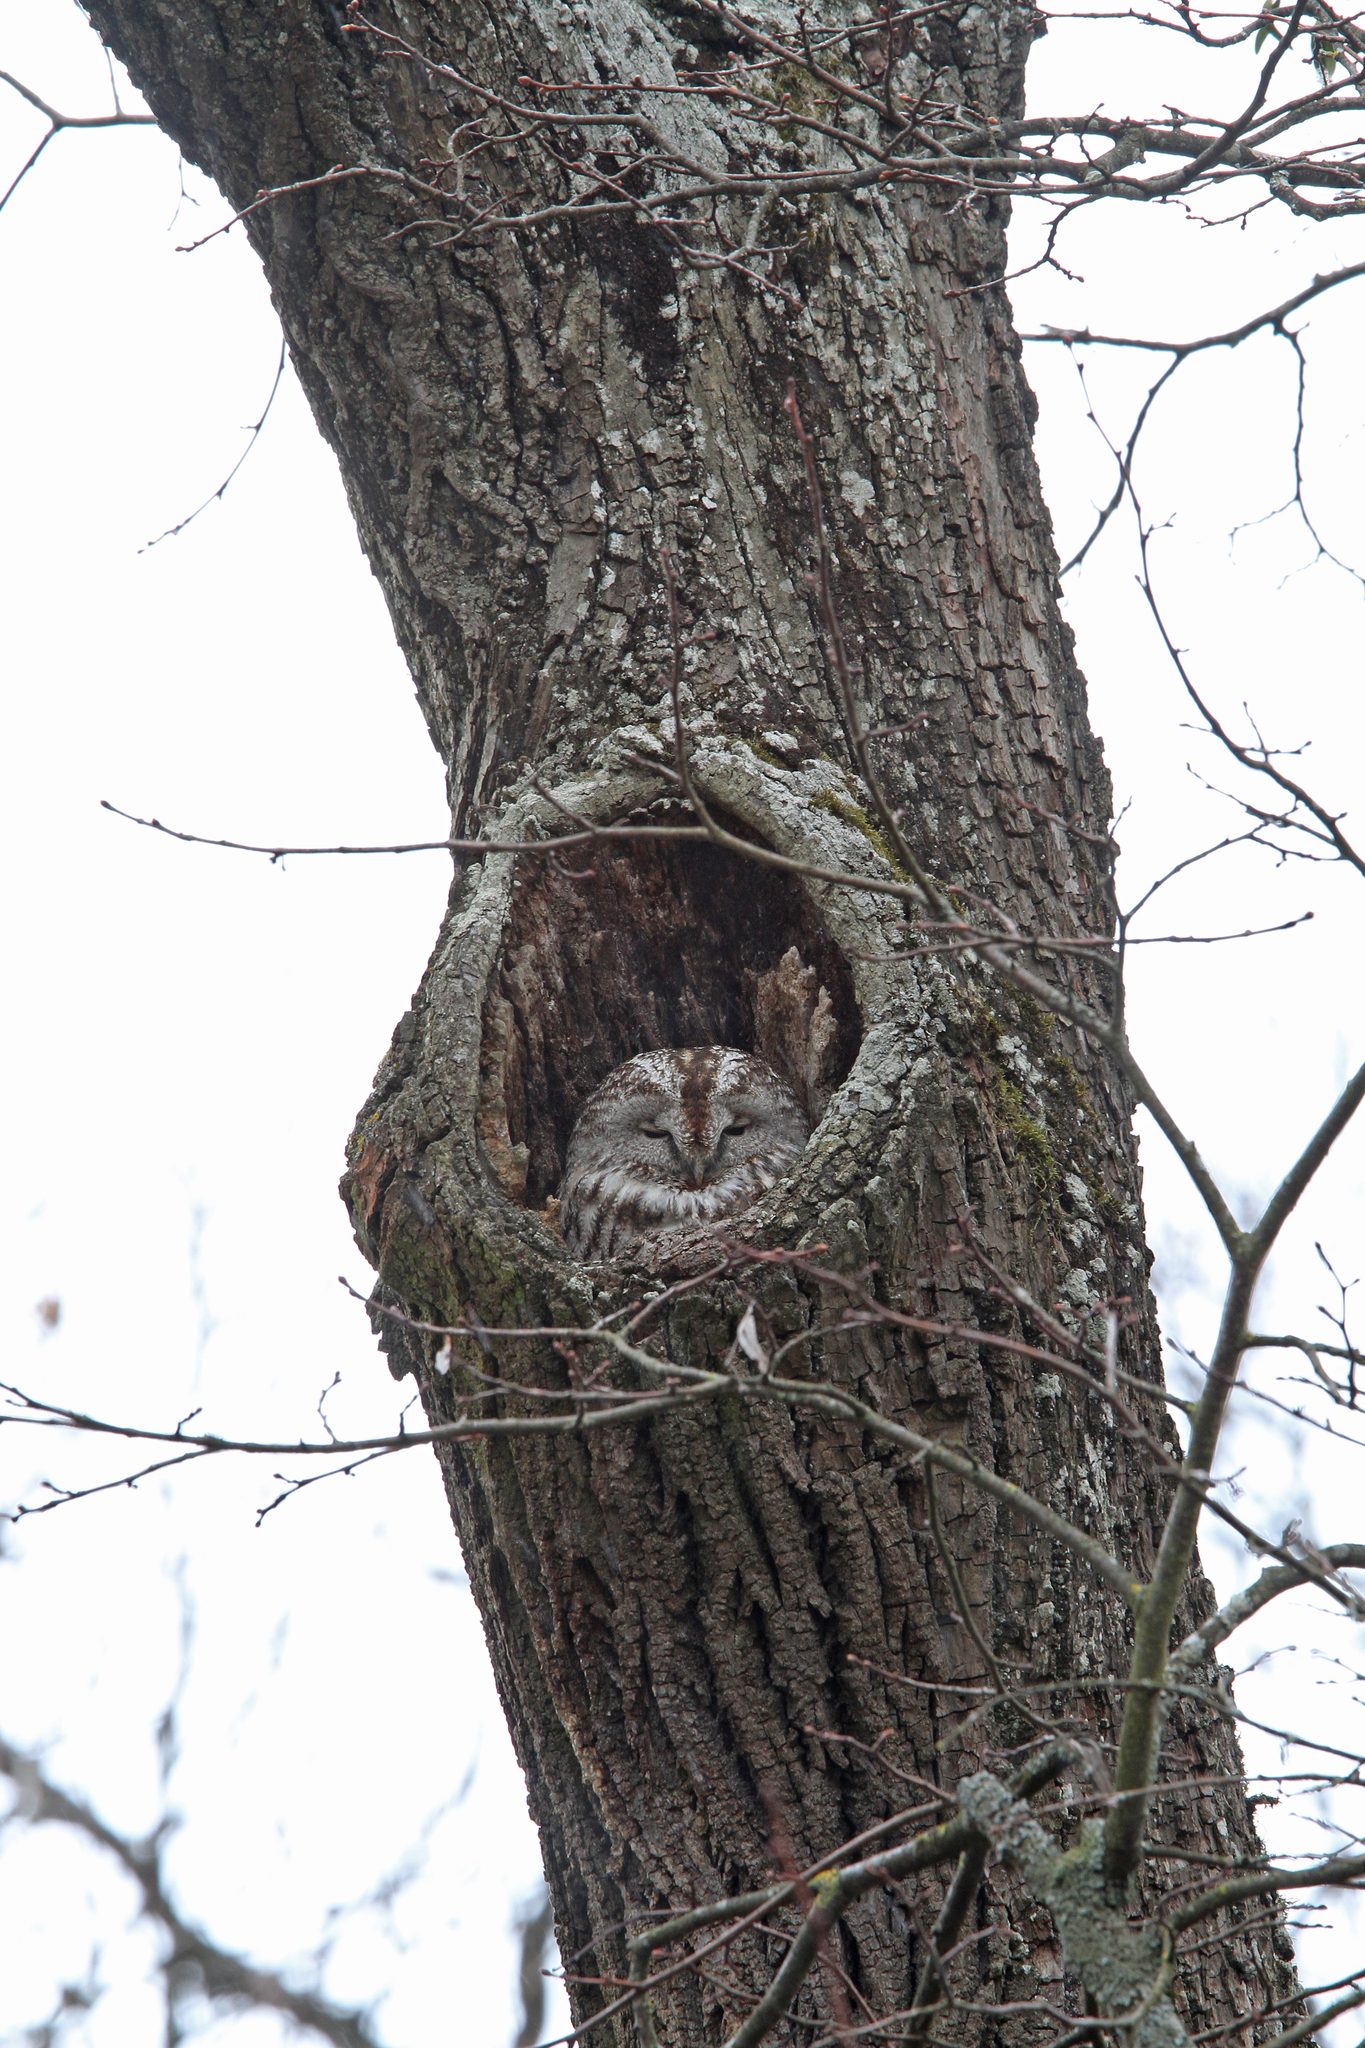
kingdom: Animalia
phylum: Chordata
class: Aves
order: Strigiformes
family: Strigidae
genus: Strix
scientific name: Strix aluco
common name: Tawny owl
